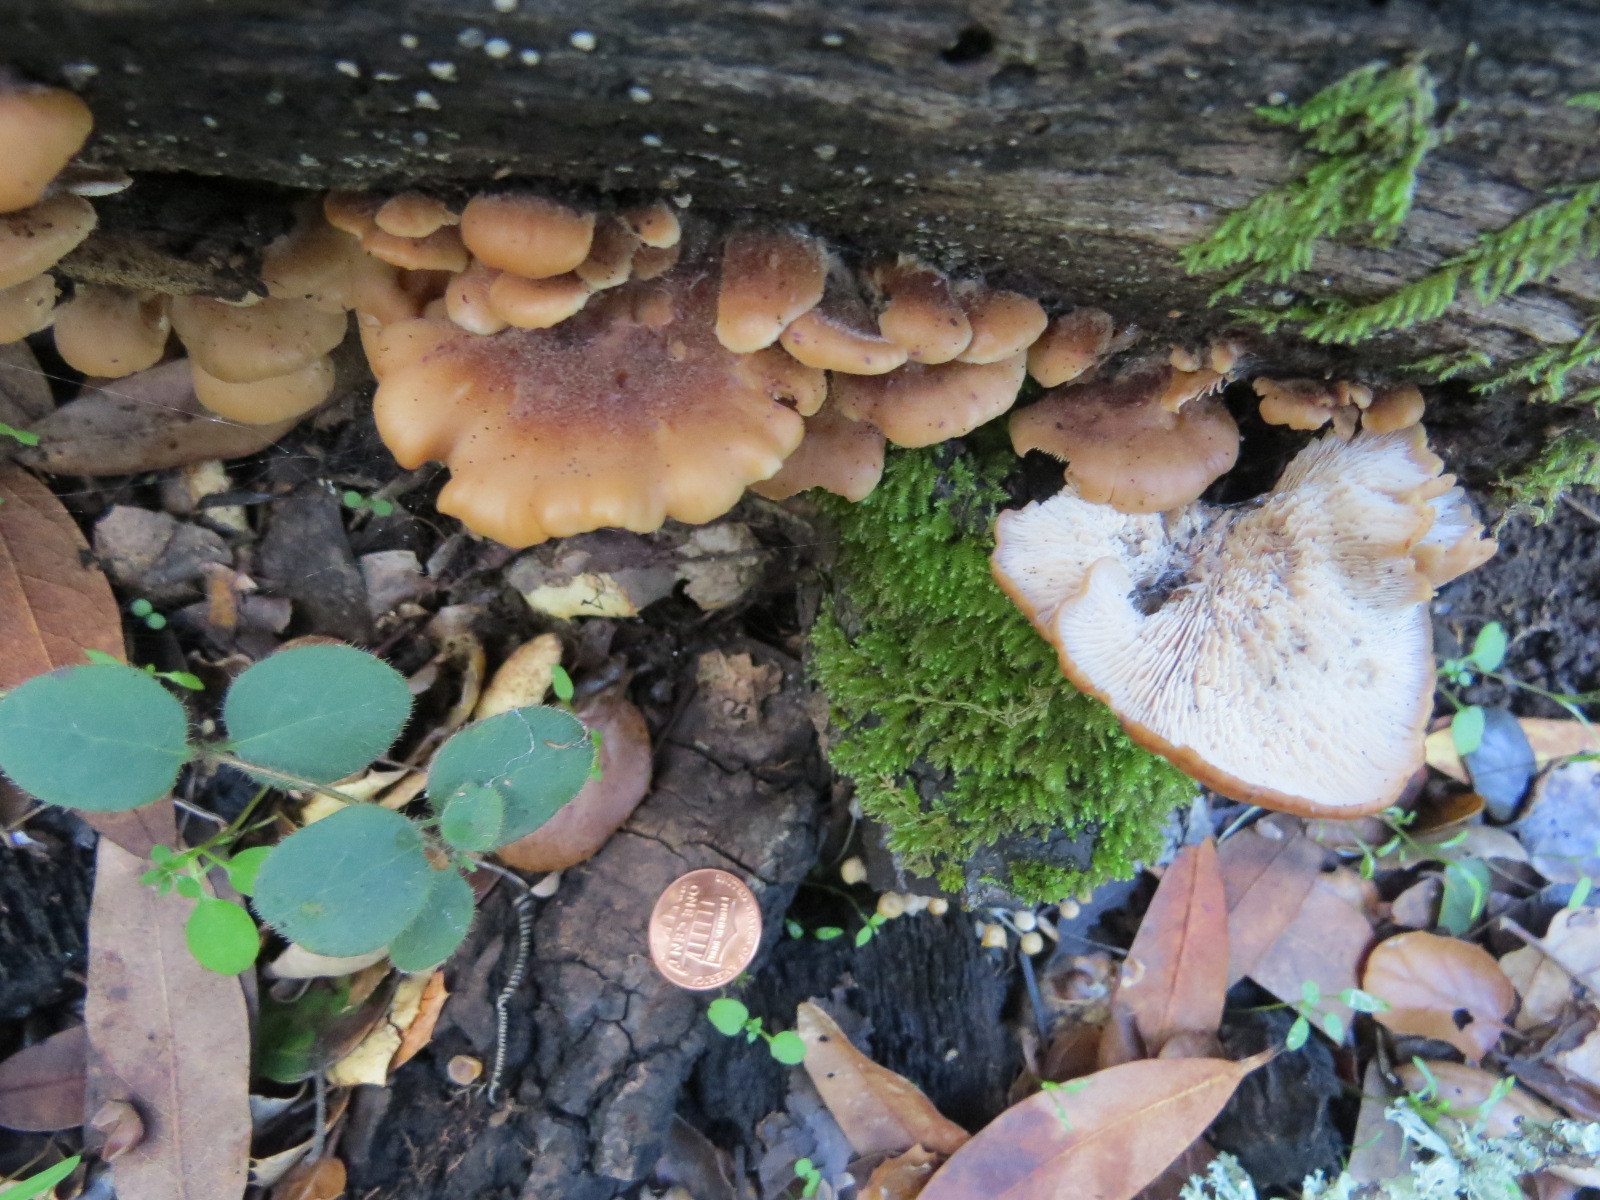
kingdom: Fungi
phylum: Basidiomycota
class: Agaricomycetes
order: Russulales
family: Auriscalpiaceae
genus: Lentinellus
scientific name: Lentinellus ursinus
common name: Bear lentinus
